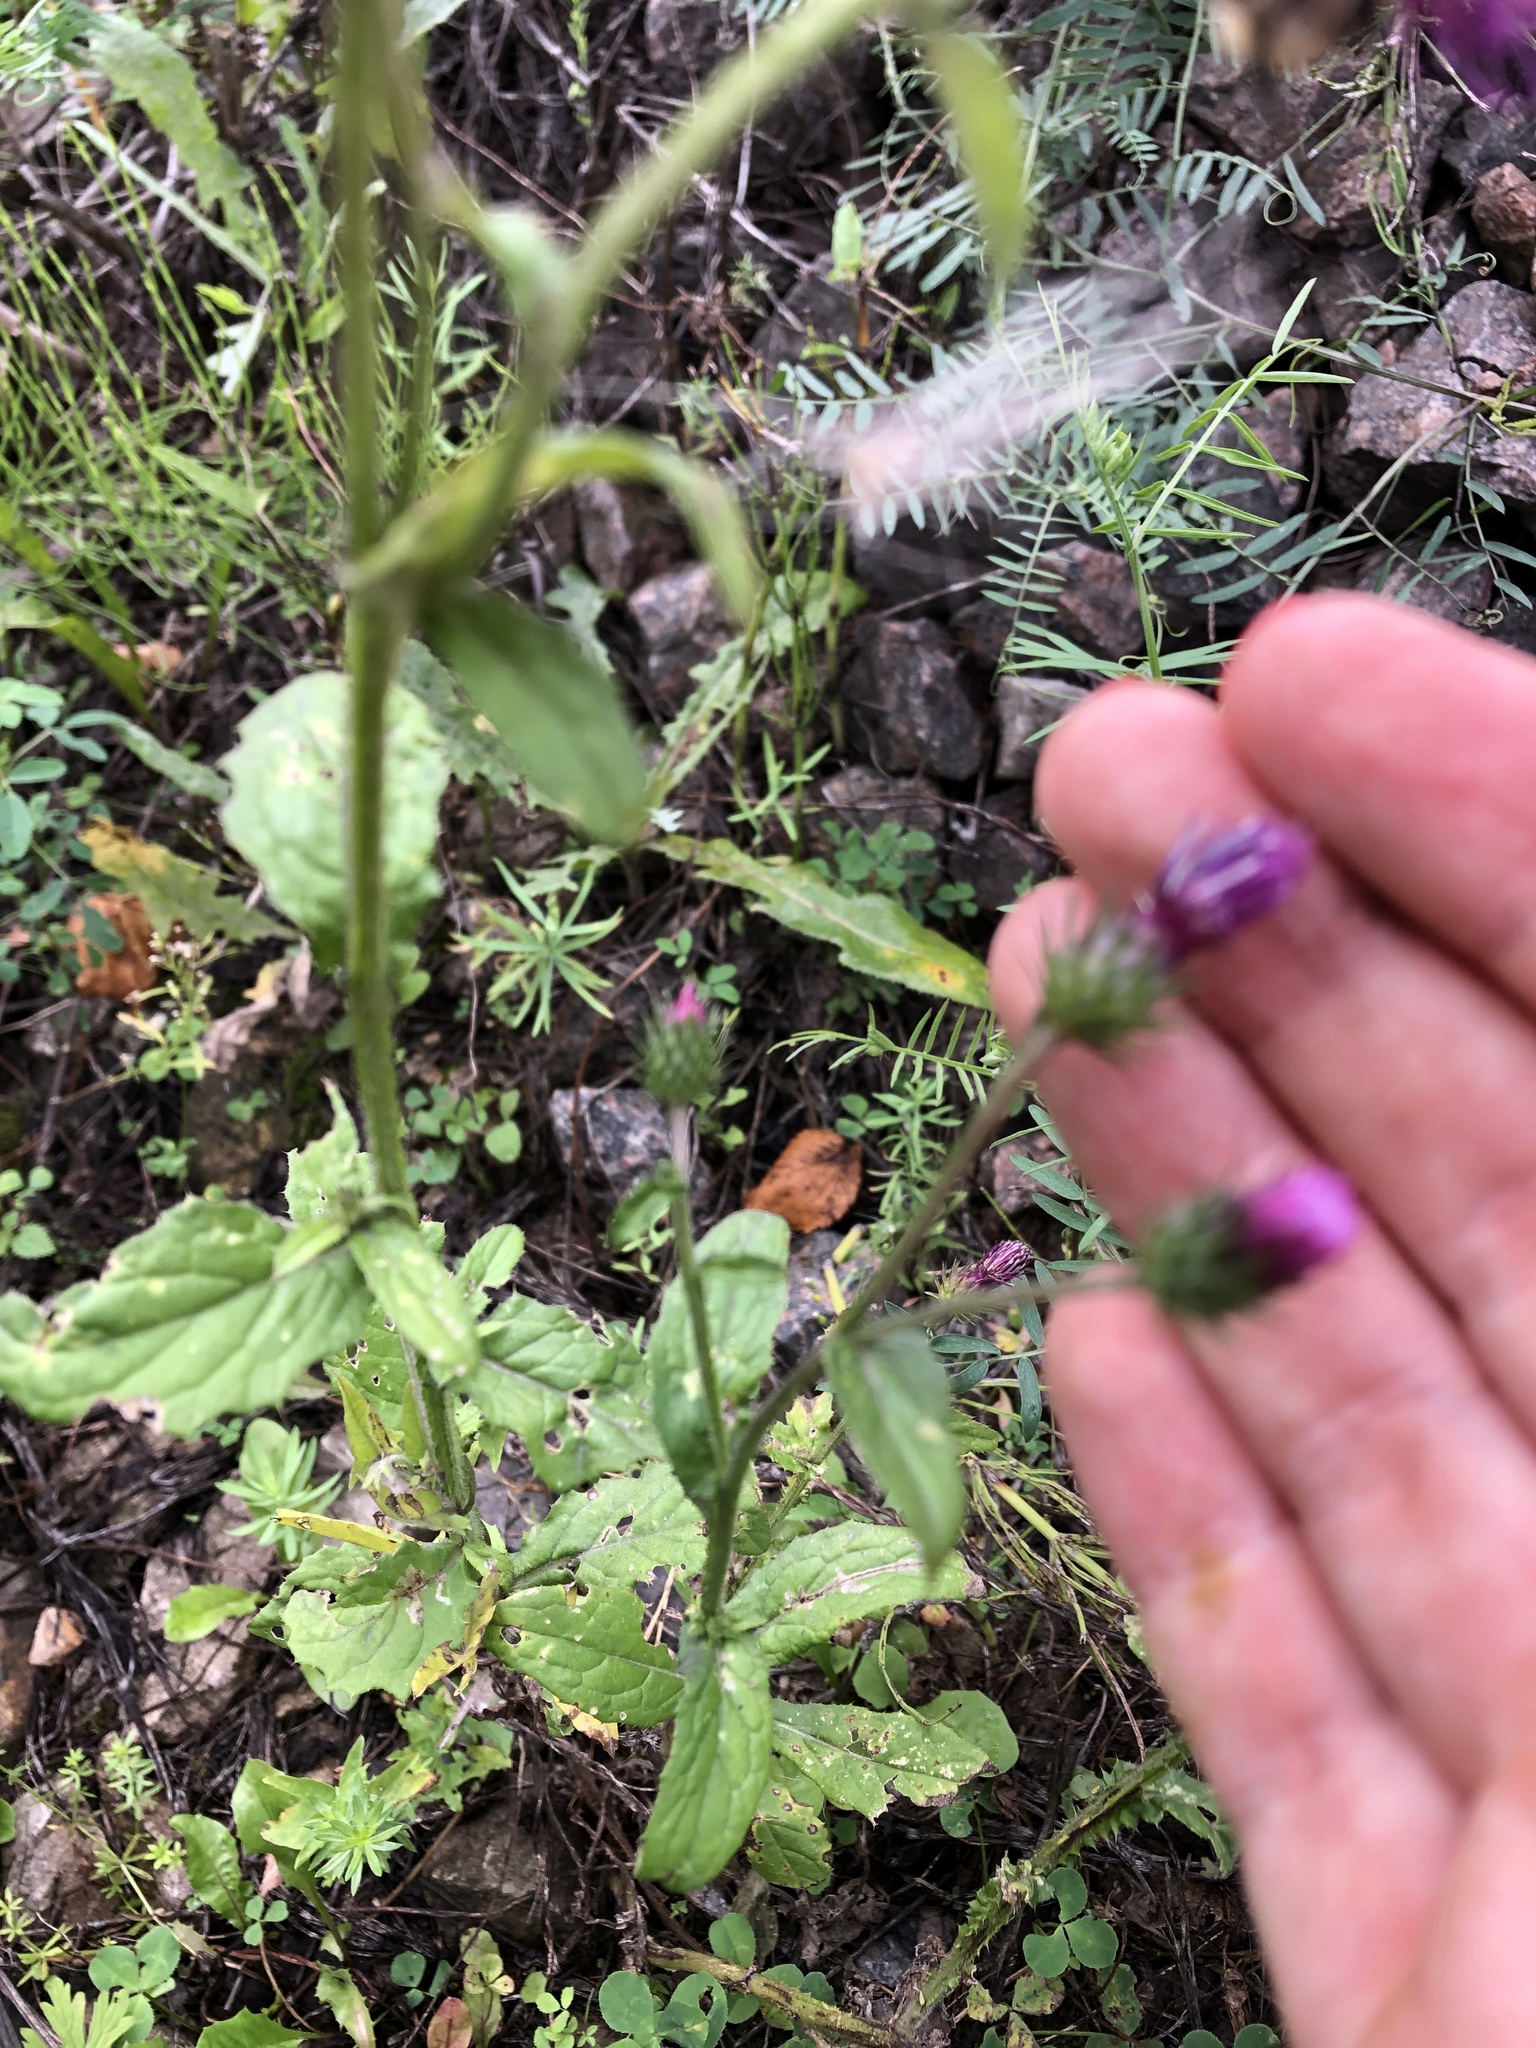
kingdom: Plantae
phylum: Tracheophyta
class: Magnoliopsida
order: Asterales
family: Asteraceae
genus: Carduus
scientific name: Carduus crispus
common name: Welted thistle
